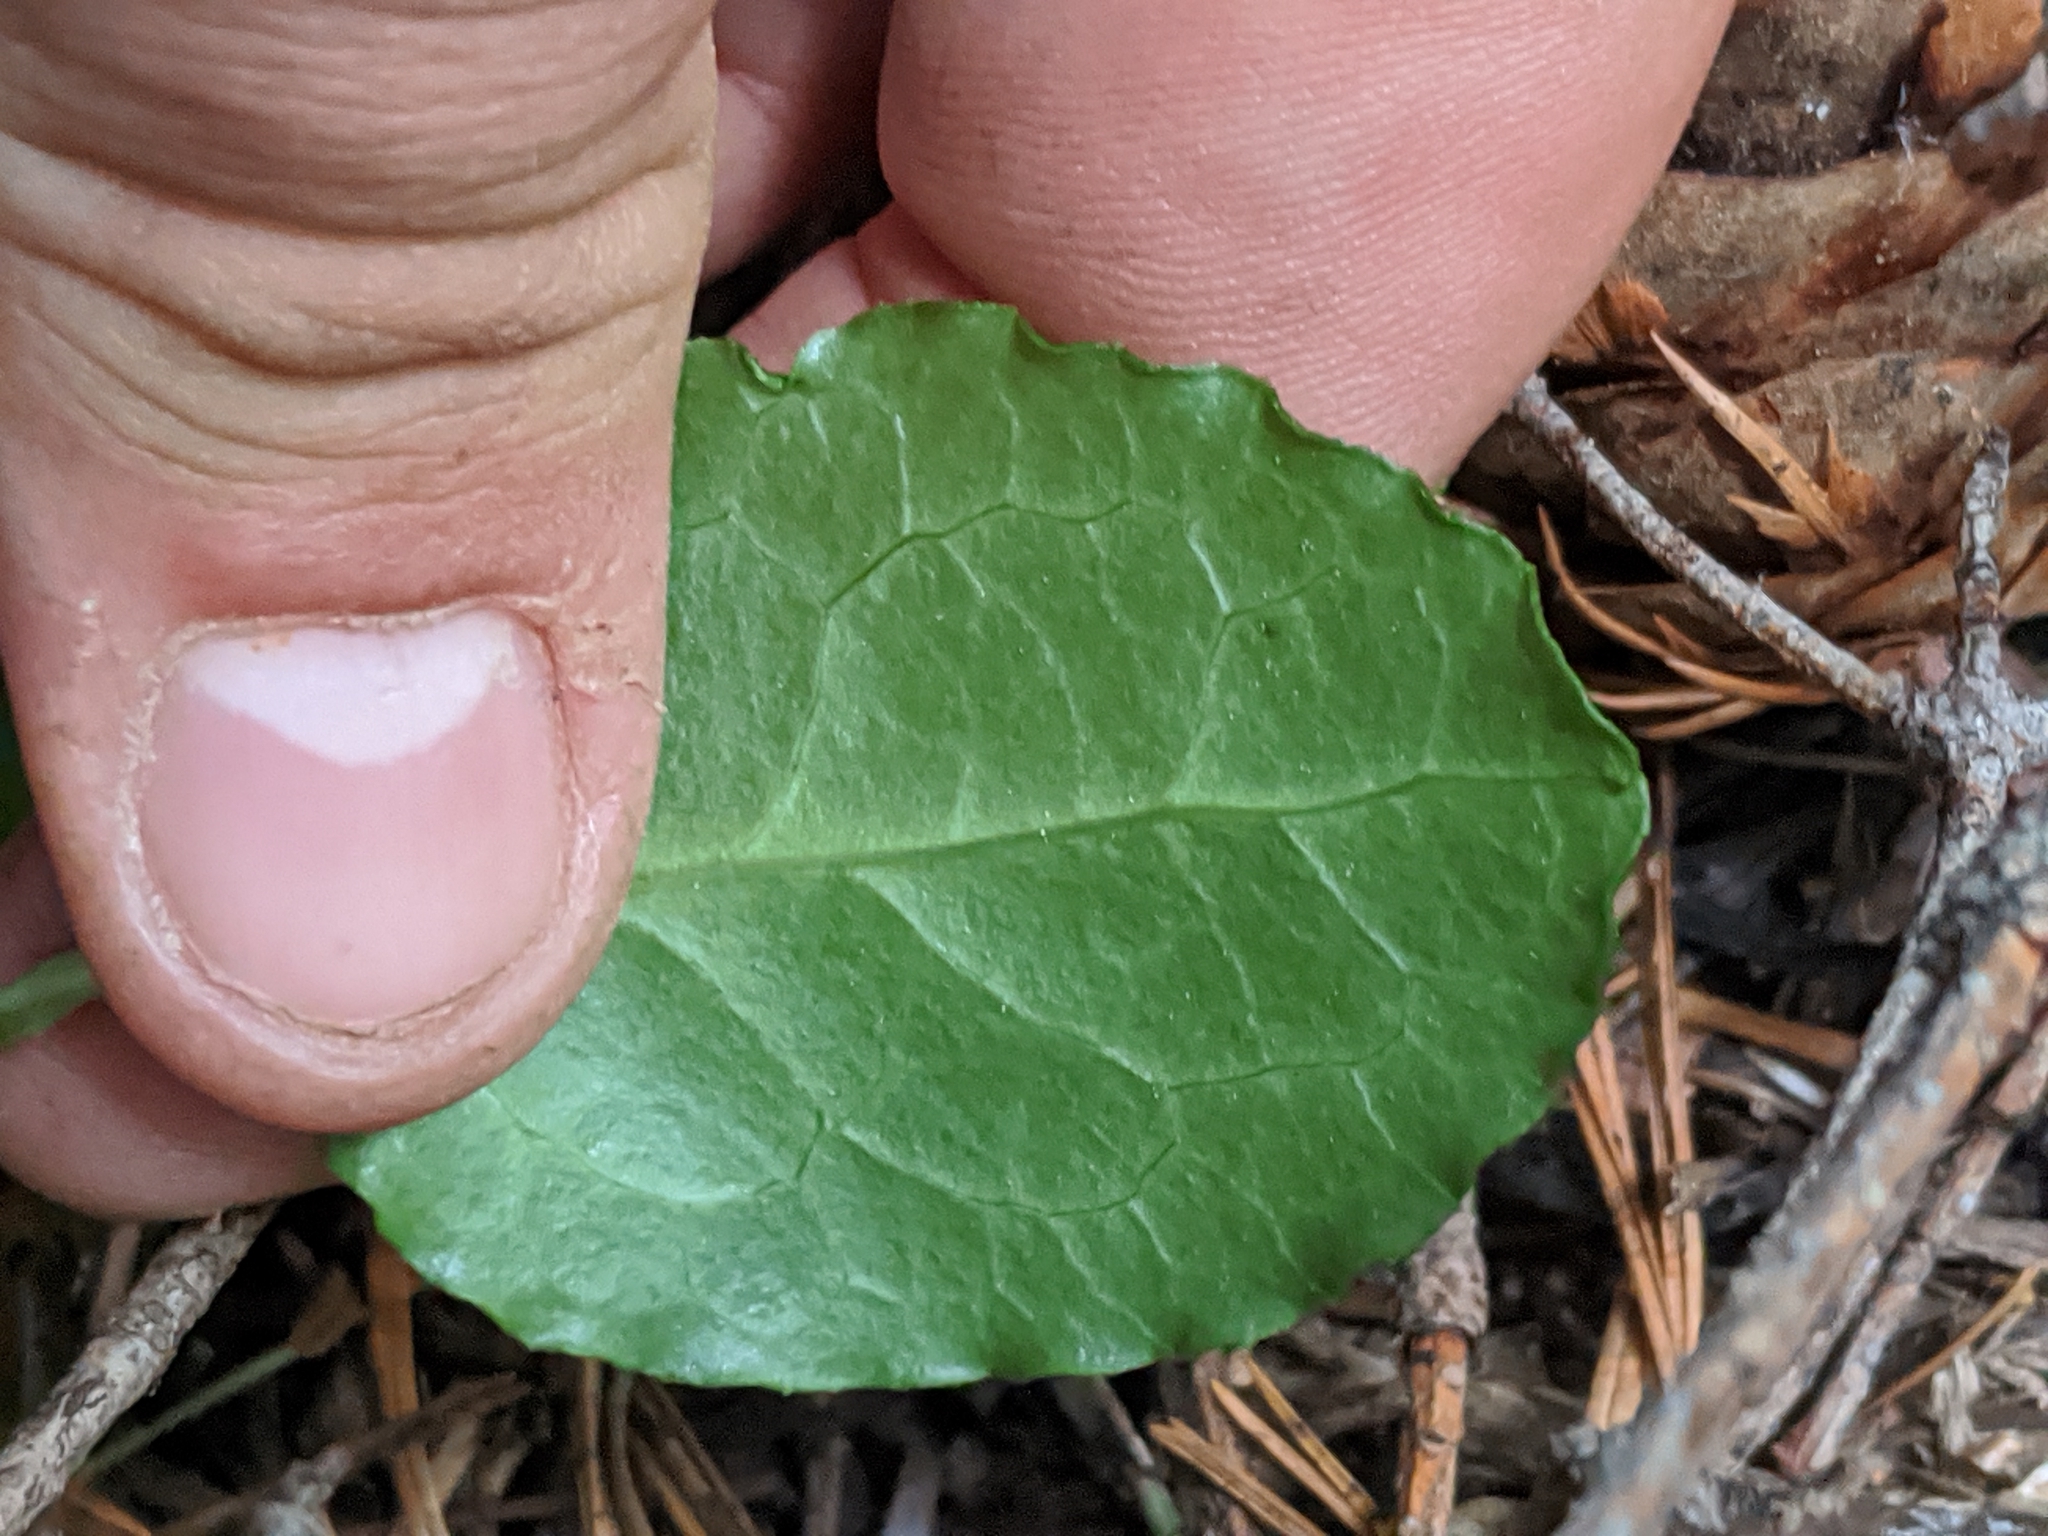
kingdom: Plantae
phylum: Tracheophyta
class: Magnoliopsida
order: Ericales
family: Ericaceae
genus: Pyrola
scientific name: Pyrola picta
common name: White-vein wintergreen
